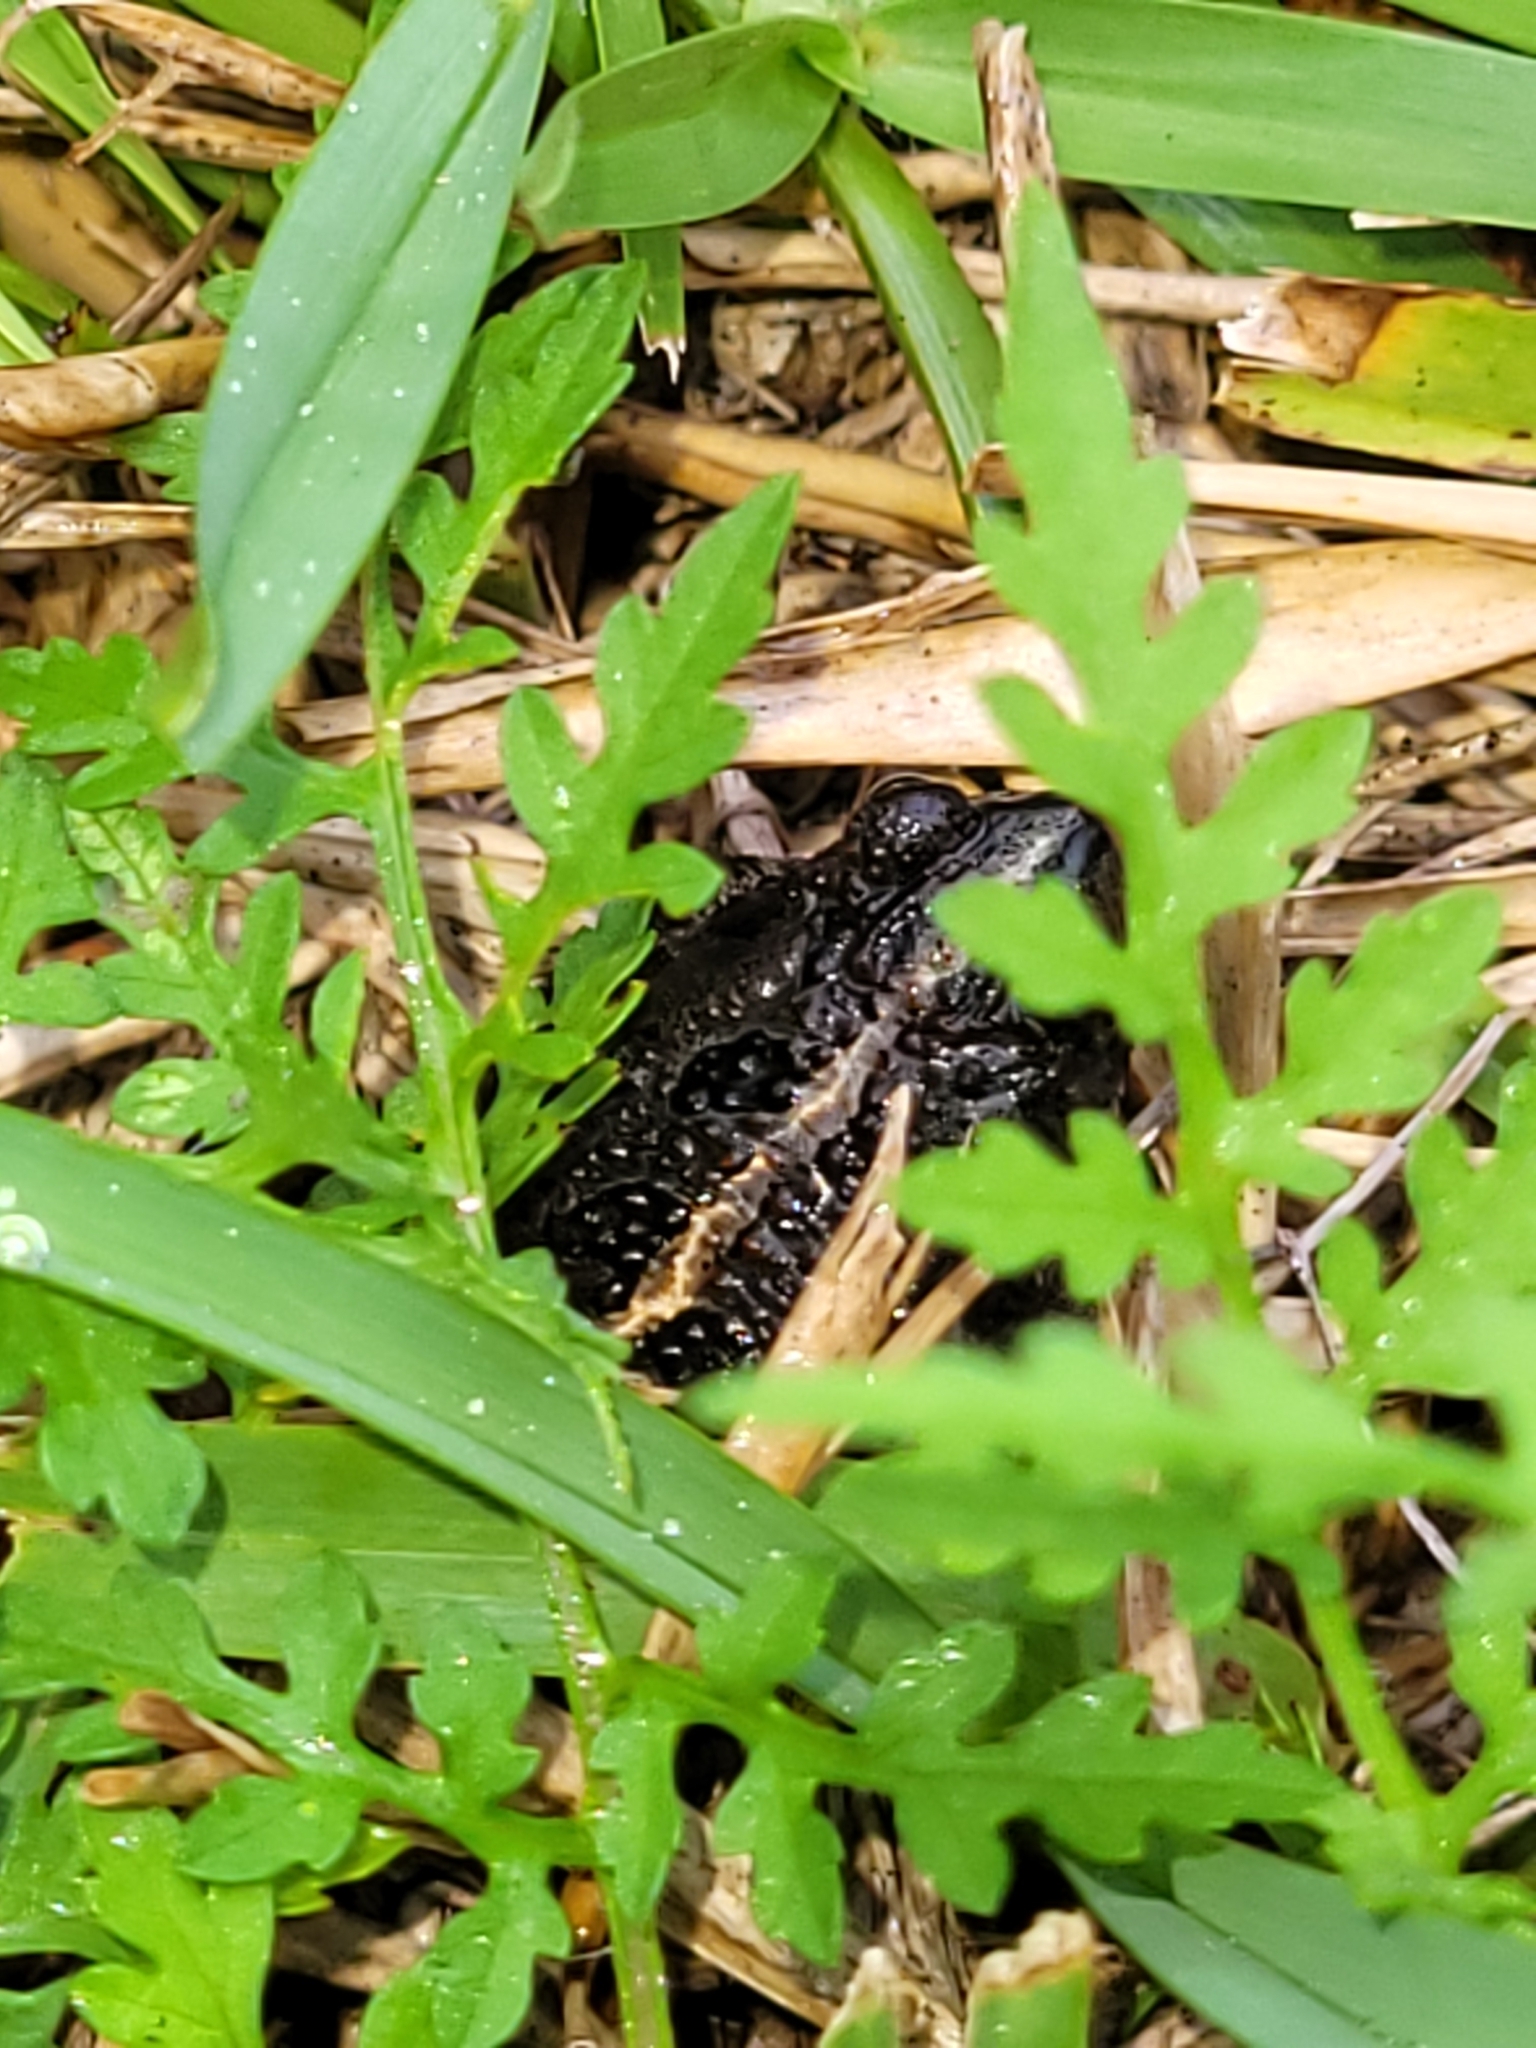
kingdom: Animalia
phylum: Chordata
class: Amphibia
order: Anura
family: Bufonidae
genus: Anaxyrus
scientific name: Anaxyrus quercicus
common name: Oak toad
